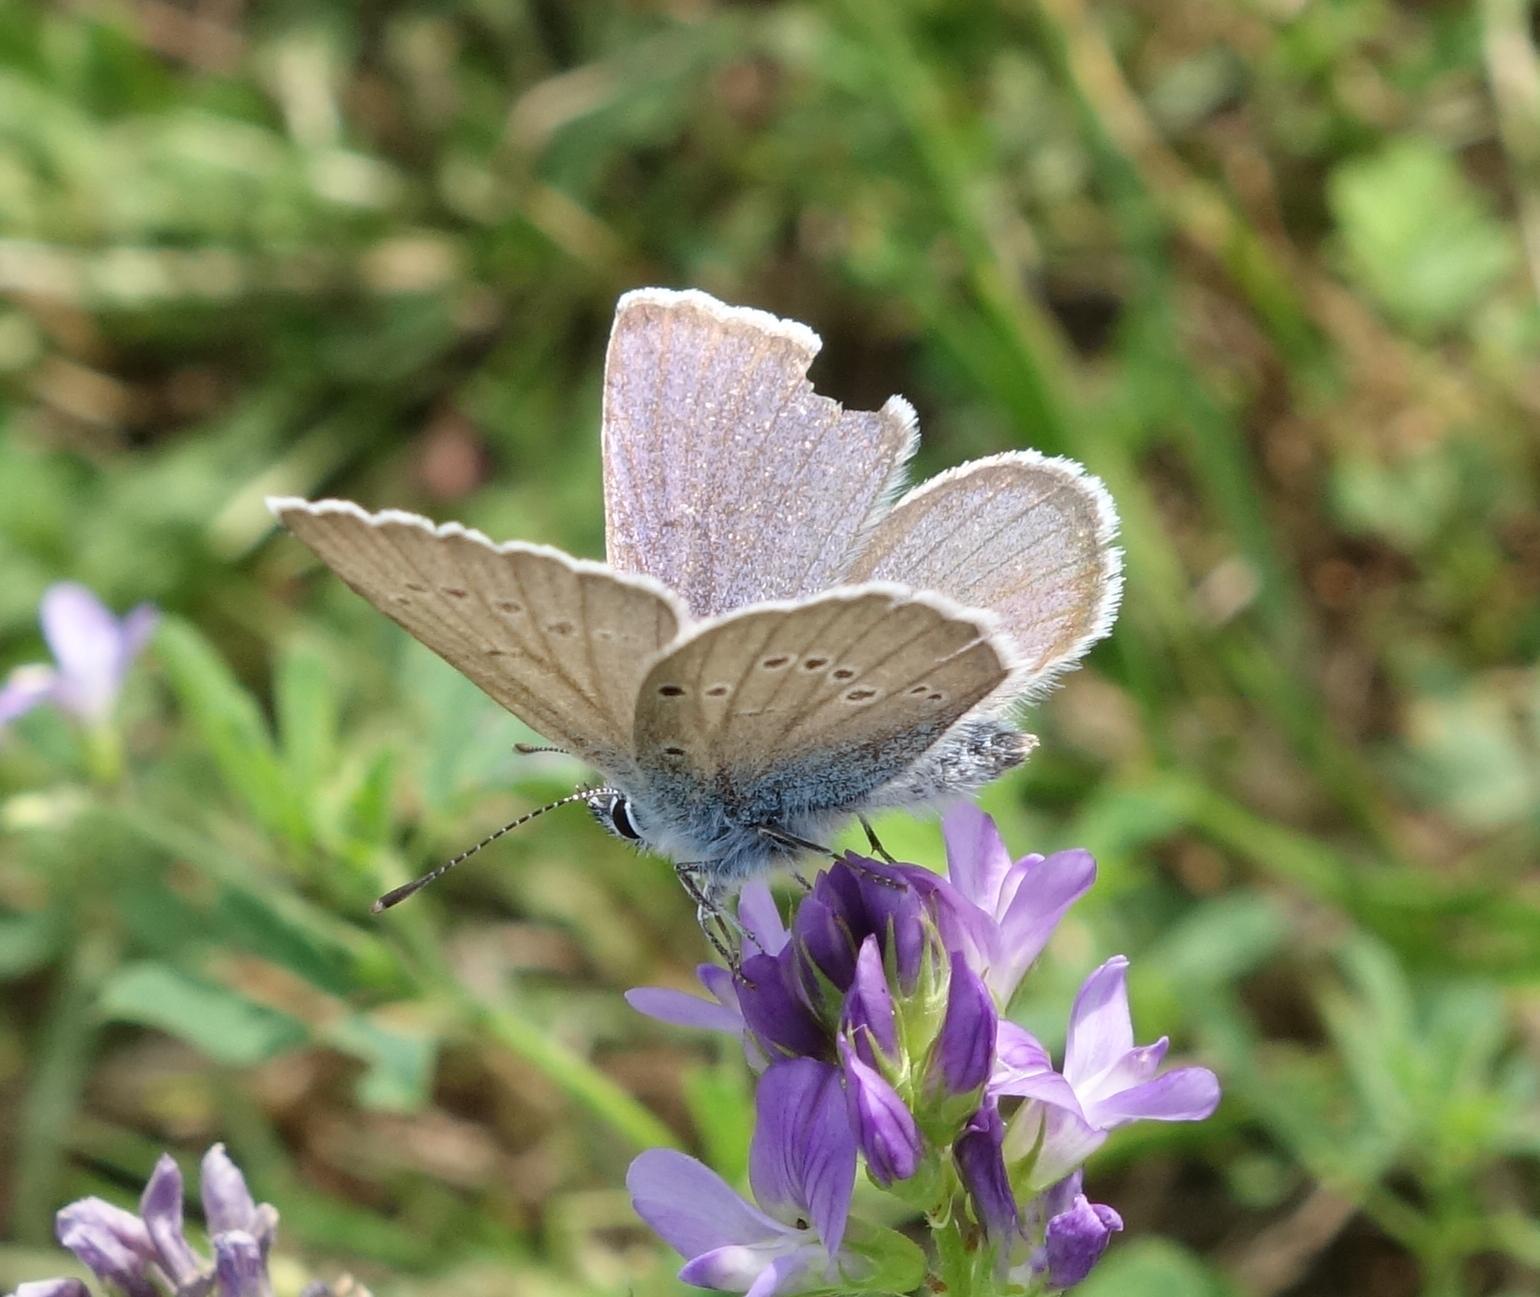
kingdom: Animalia
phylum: Arthropoda
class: Insecta
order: Lepidoptera
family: Lycaenidae
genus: Cyaniris
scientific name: Cyaniris semiargus
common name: Mazarine blue
